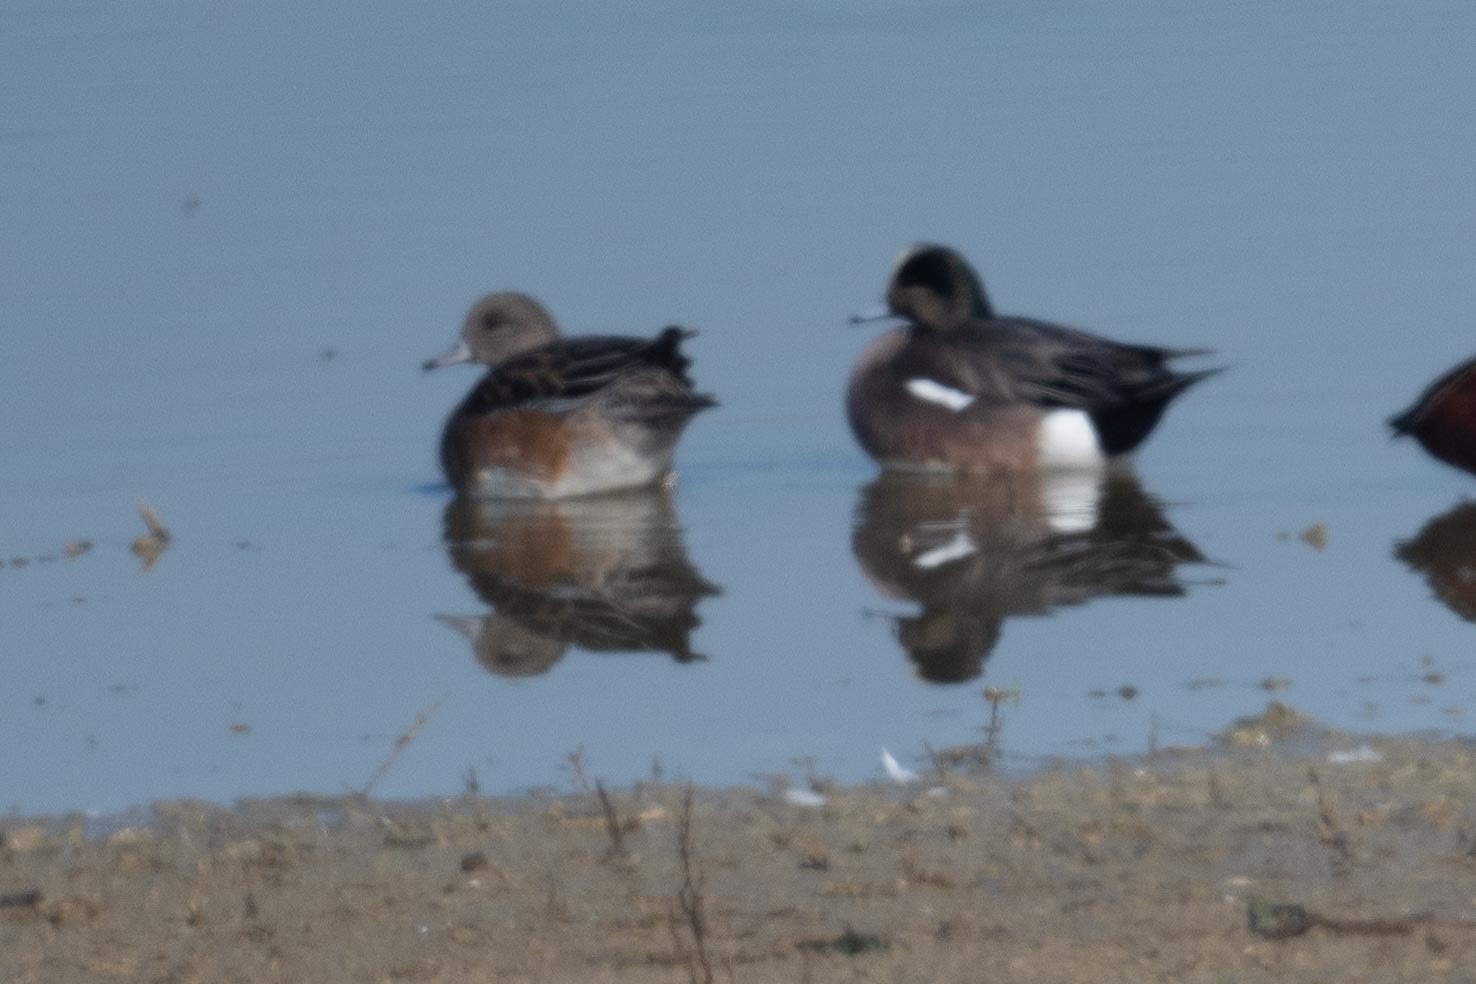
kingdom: Animalia
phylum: Chordata
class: Aves
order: Anseriformes
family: Anatidae
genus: Mareca
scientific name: Mareca americana
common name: American wigeon
